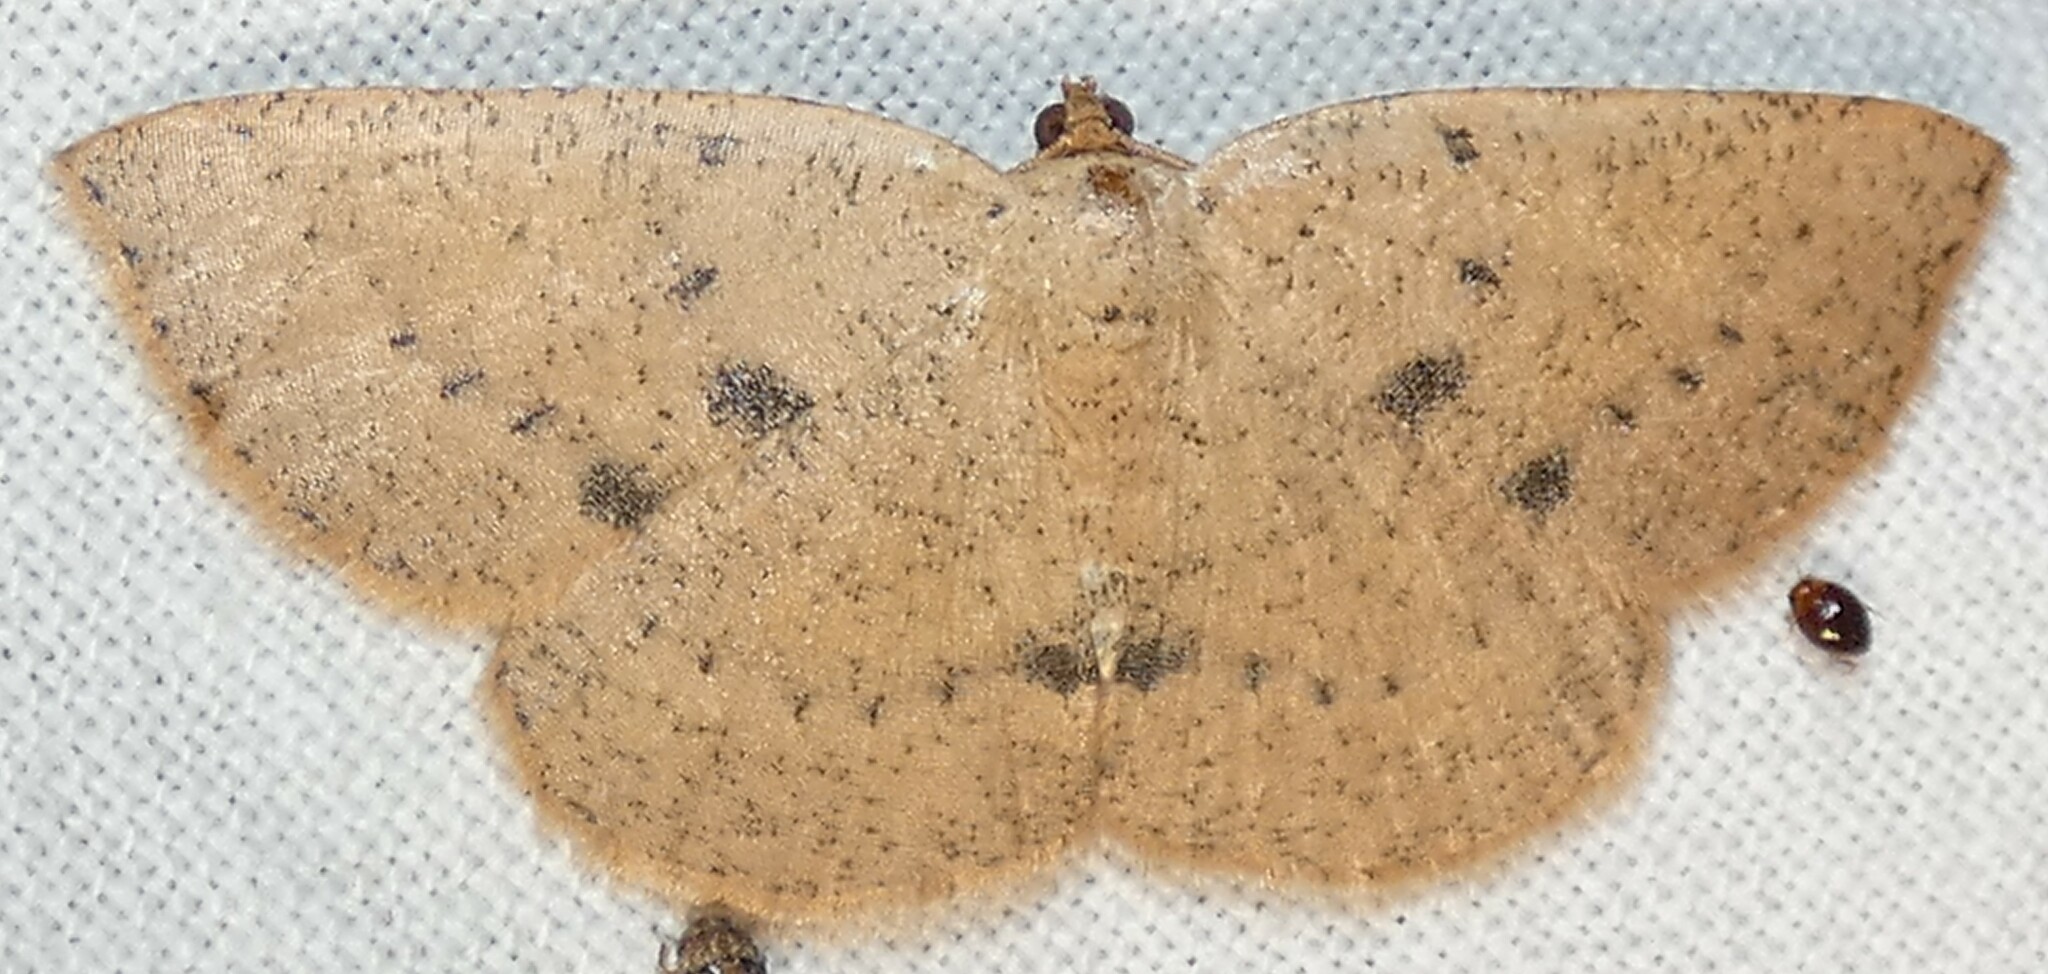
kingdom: Animalia
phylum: Arthropoda
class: Insecta
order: Lepidoptera
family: Geometridae
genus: Episemasia
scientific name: Episemasia solitaria
